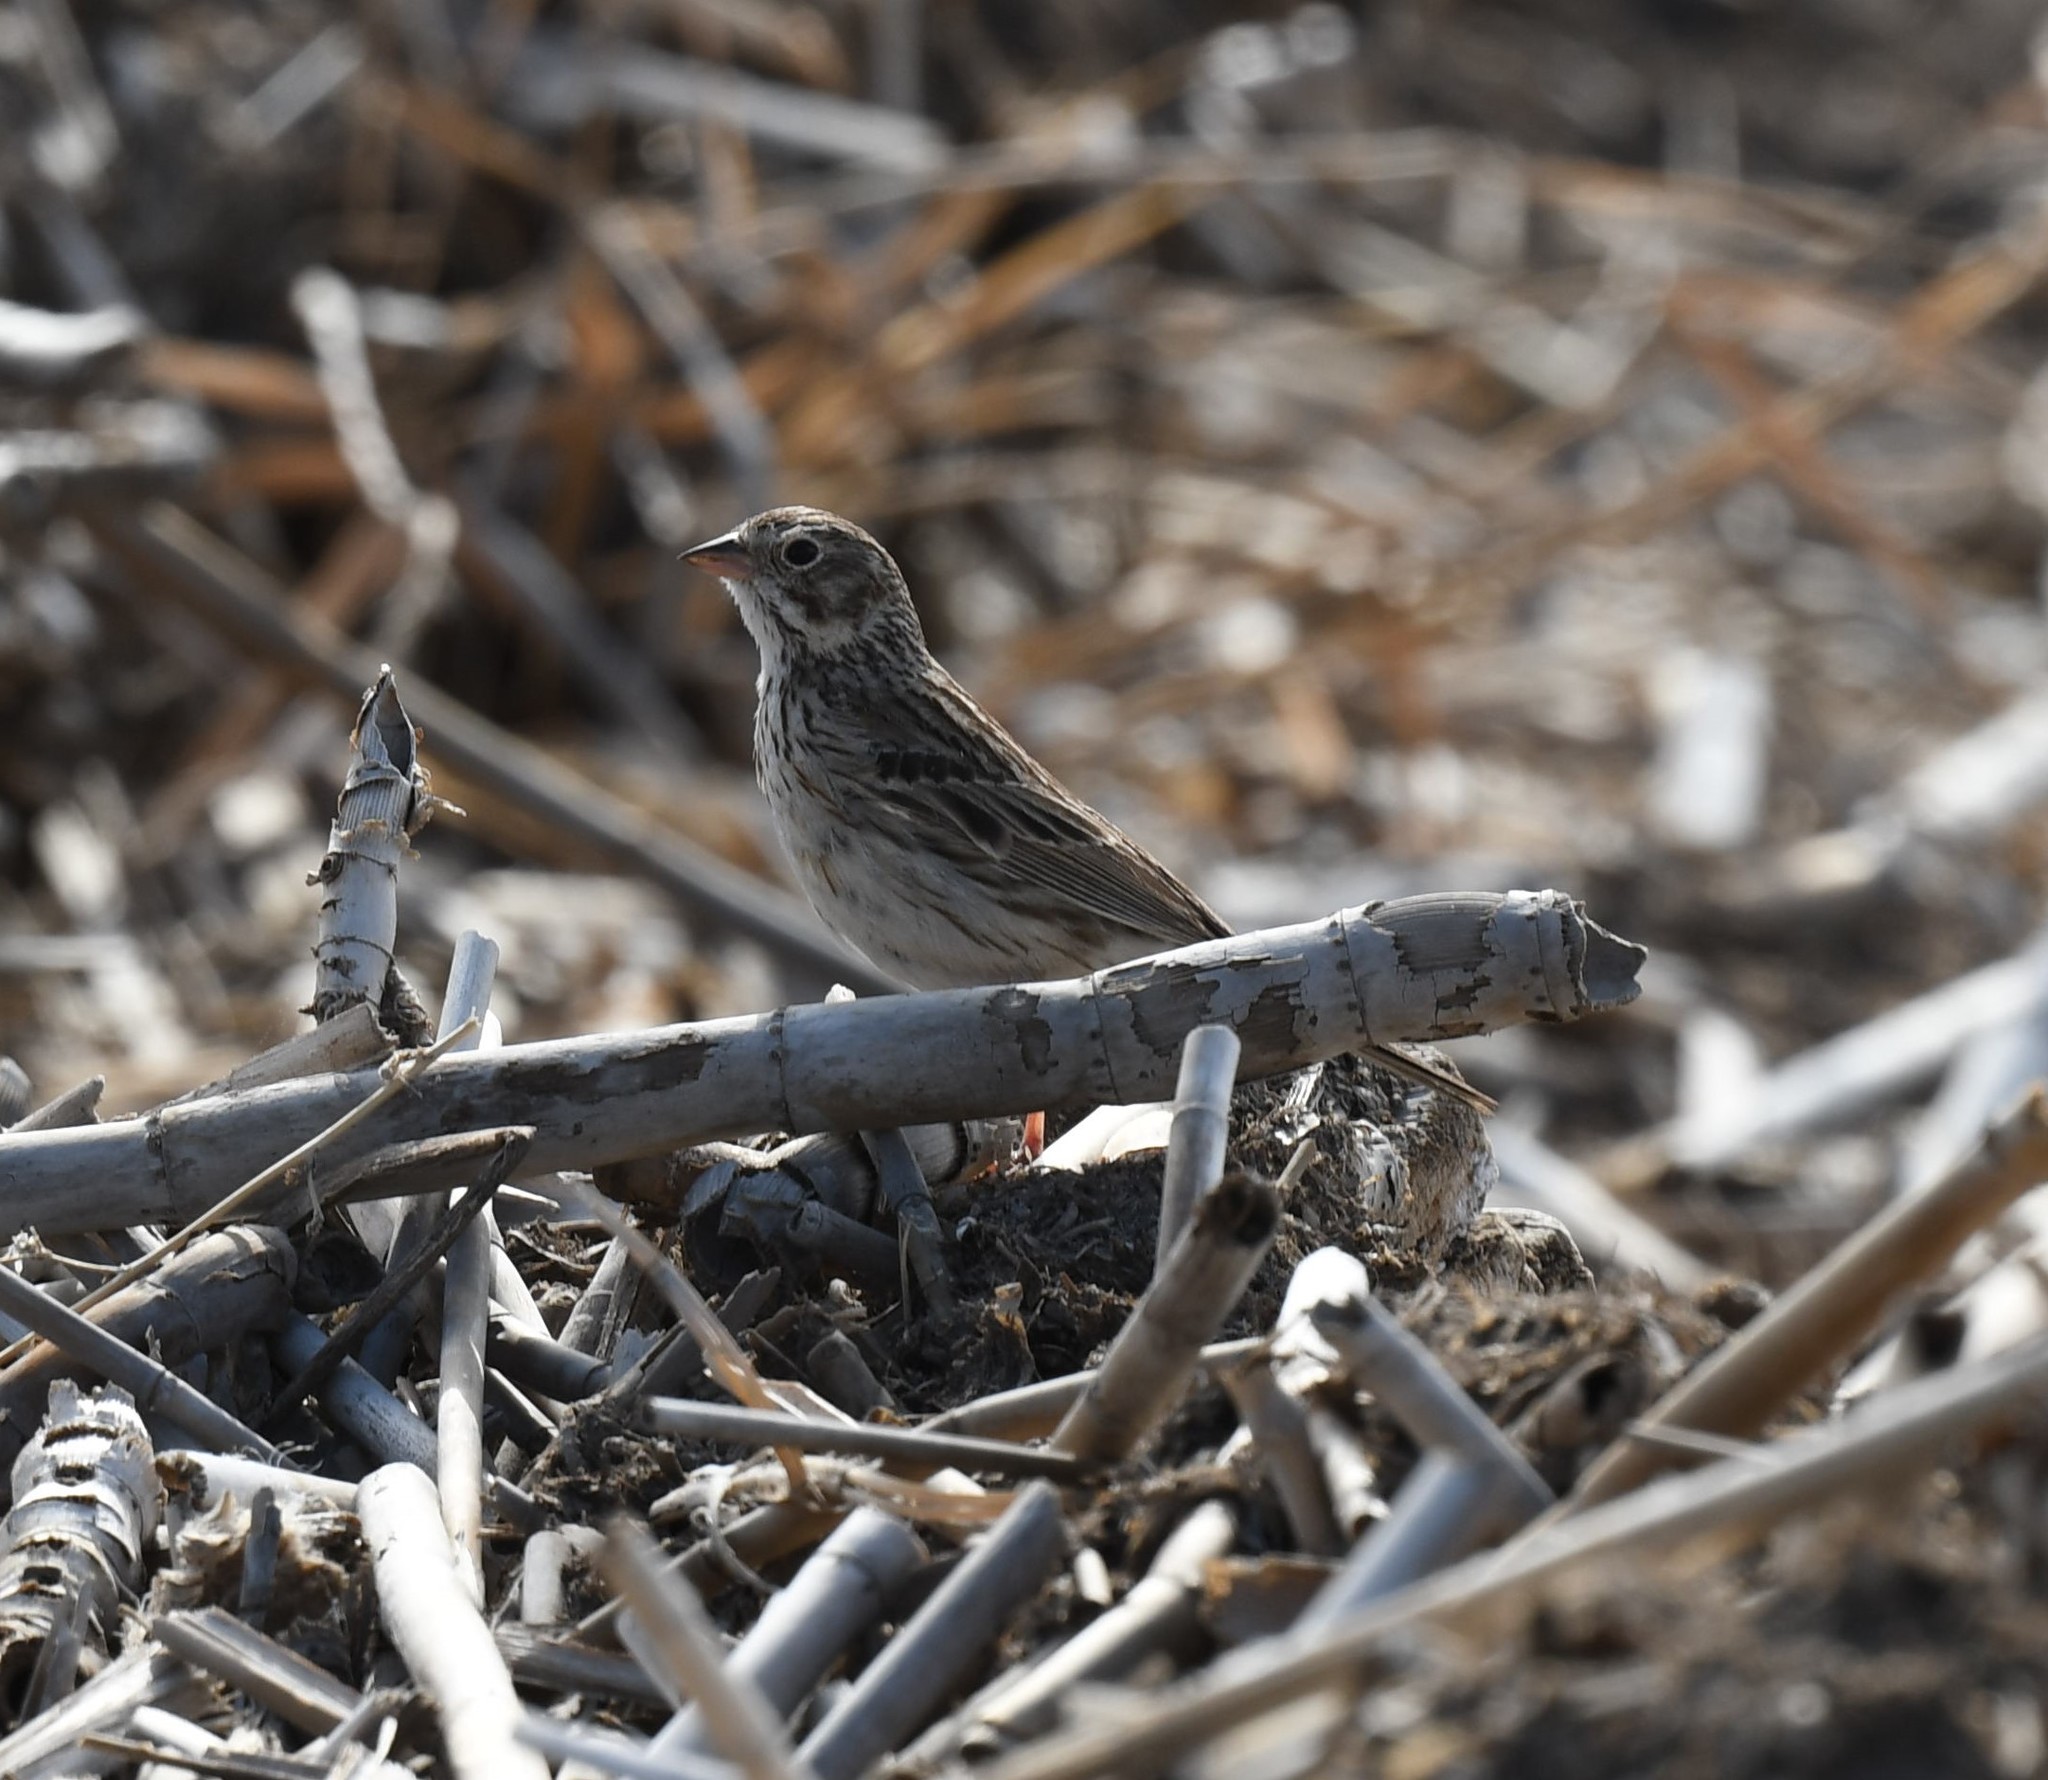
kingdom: Animalia
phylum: Chordata
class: Aves
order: Passeriformes
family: Passerellidae
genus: Pooecetes
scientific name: Pooecetes gramineus
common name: Vesper sparrow
